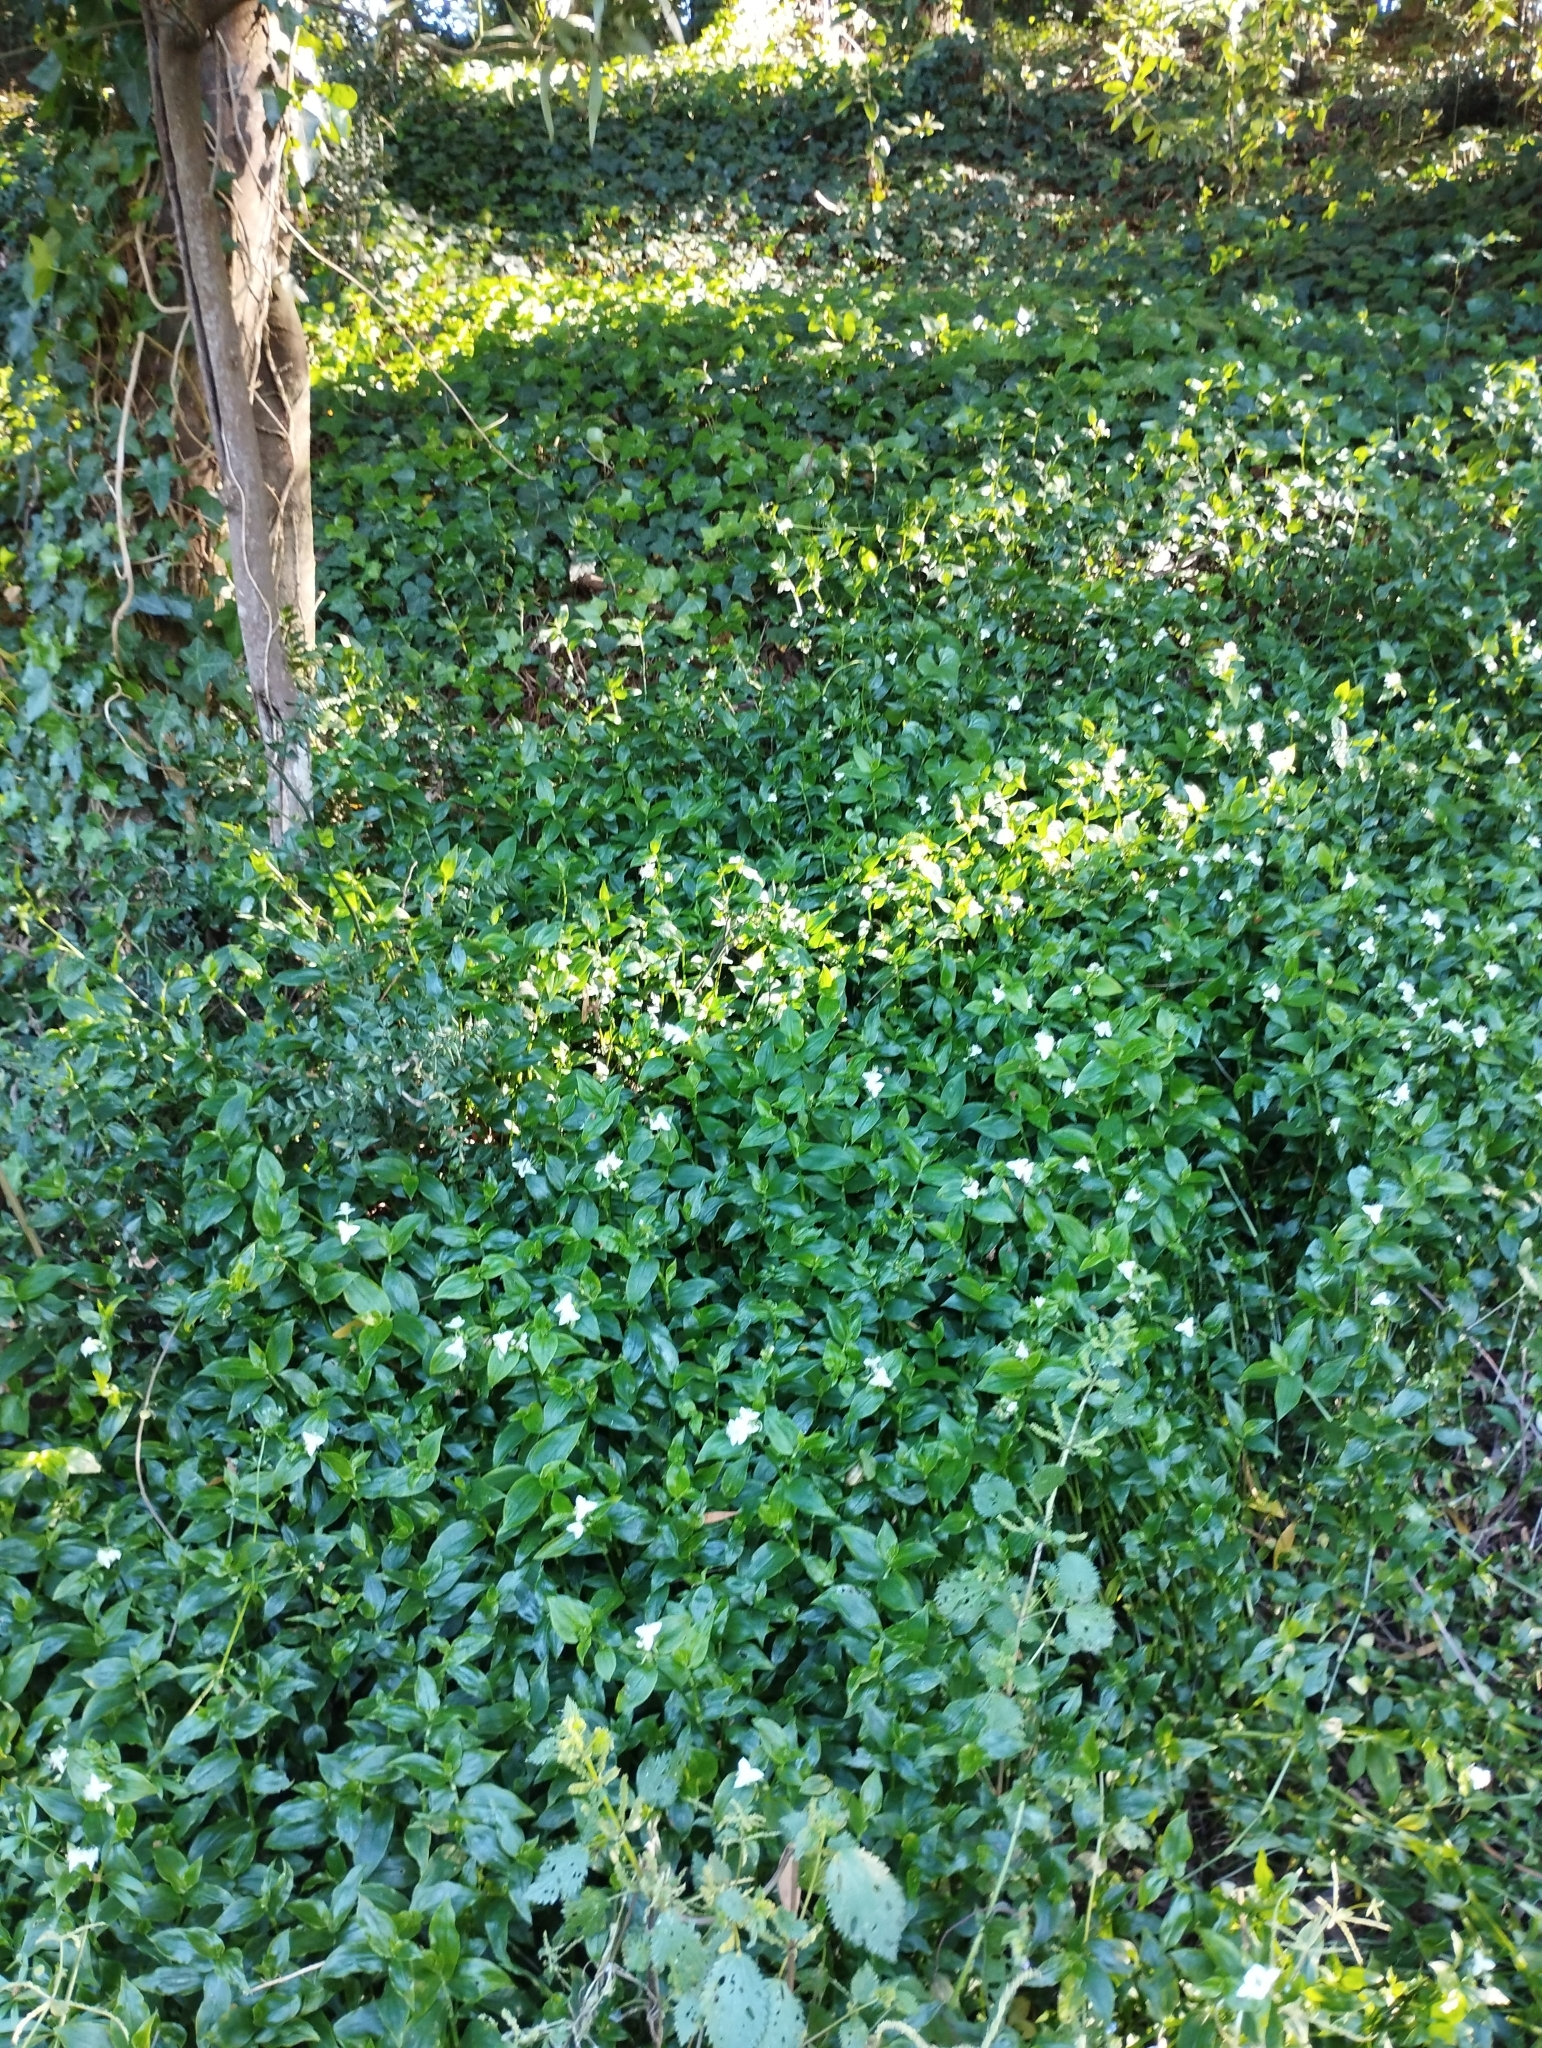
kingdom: Plantae
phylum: Tracheophyta
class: Liliopsida
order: Commelinales
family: Commelinaceae
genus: Tradescantia
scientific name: Tradescantia fluminensis
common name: Wandering-jew
